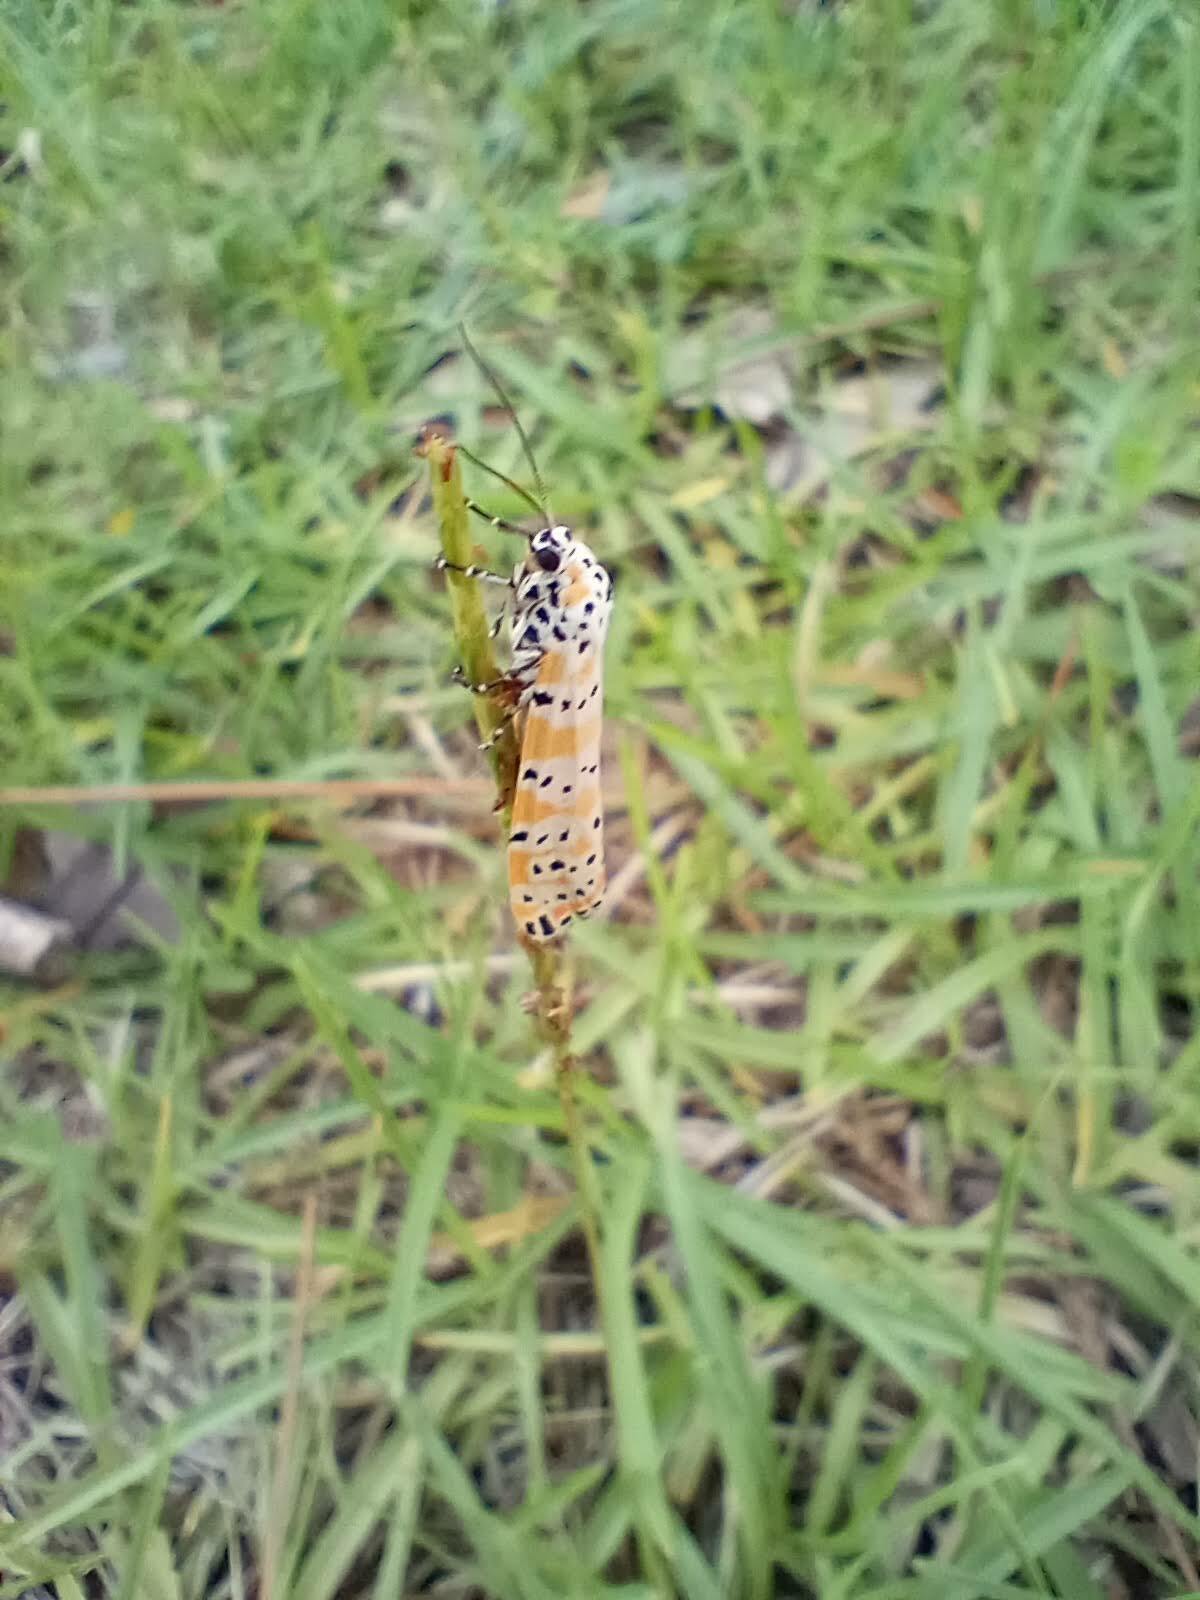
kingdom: Animalia
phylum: Arthropoda
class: Insecta
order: Lepidoptera
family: Erebidae
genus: Utetheisa
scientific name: Utetheisa ornatrix
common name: Beautiful utetheisa
